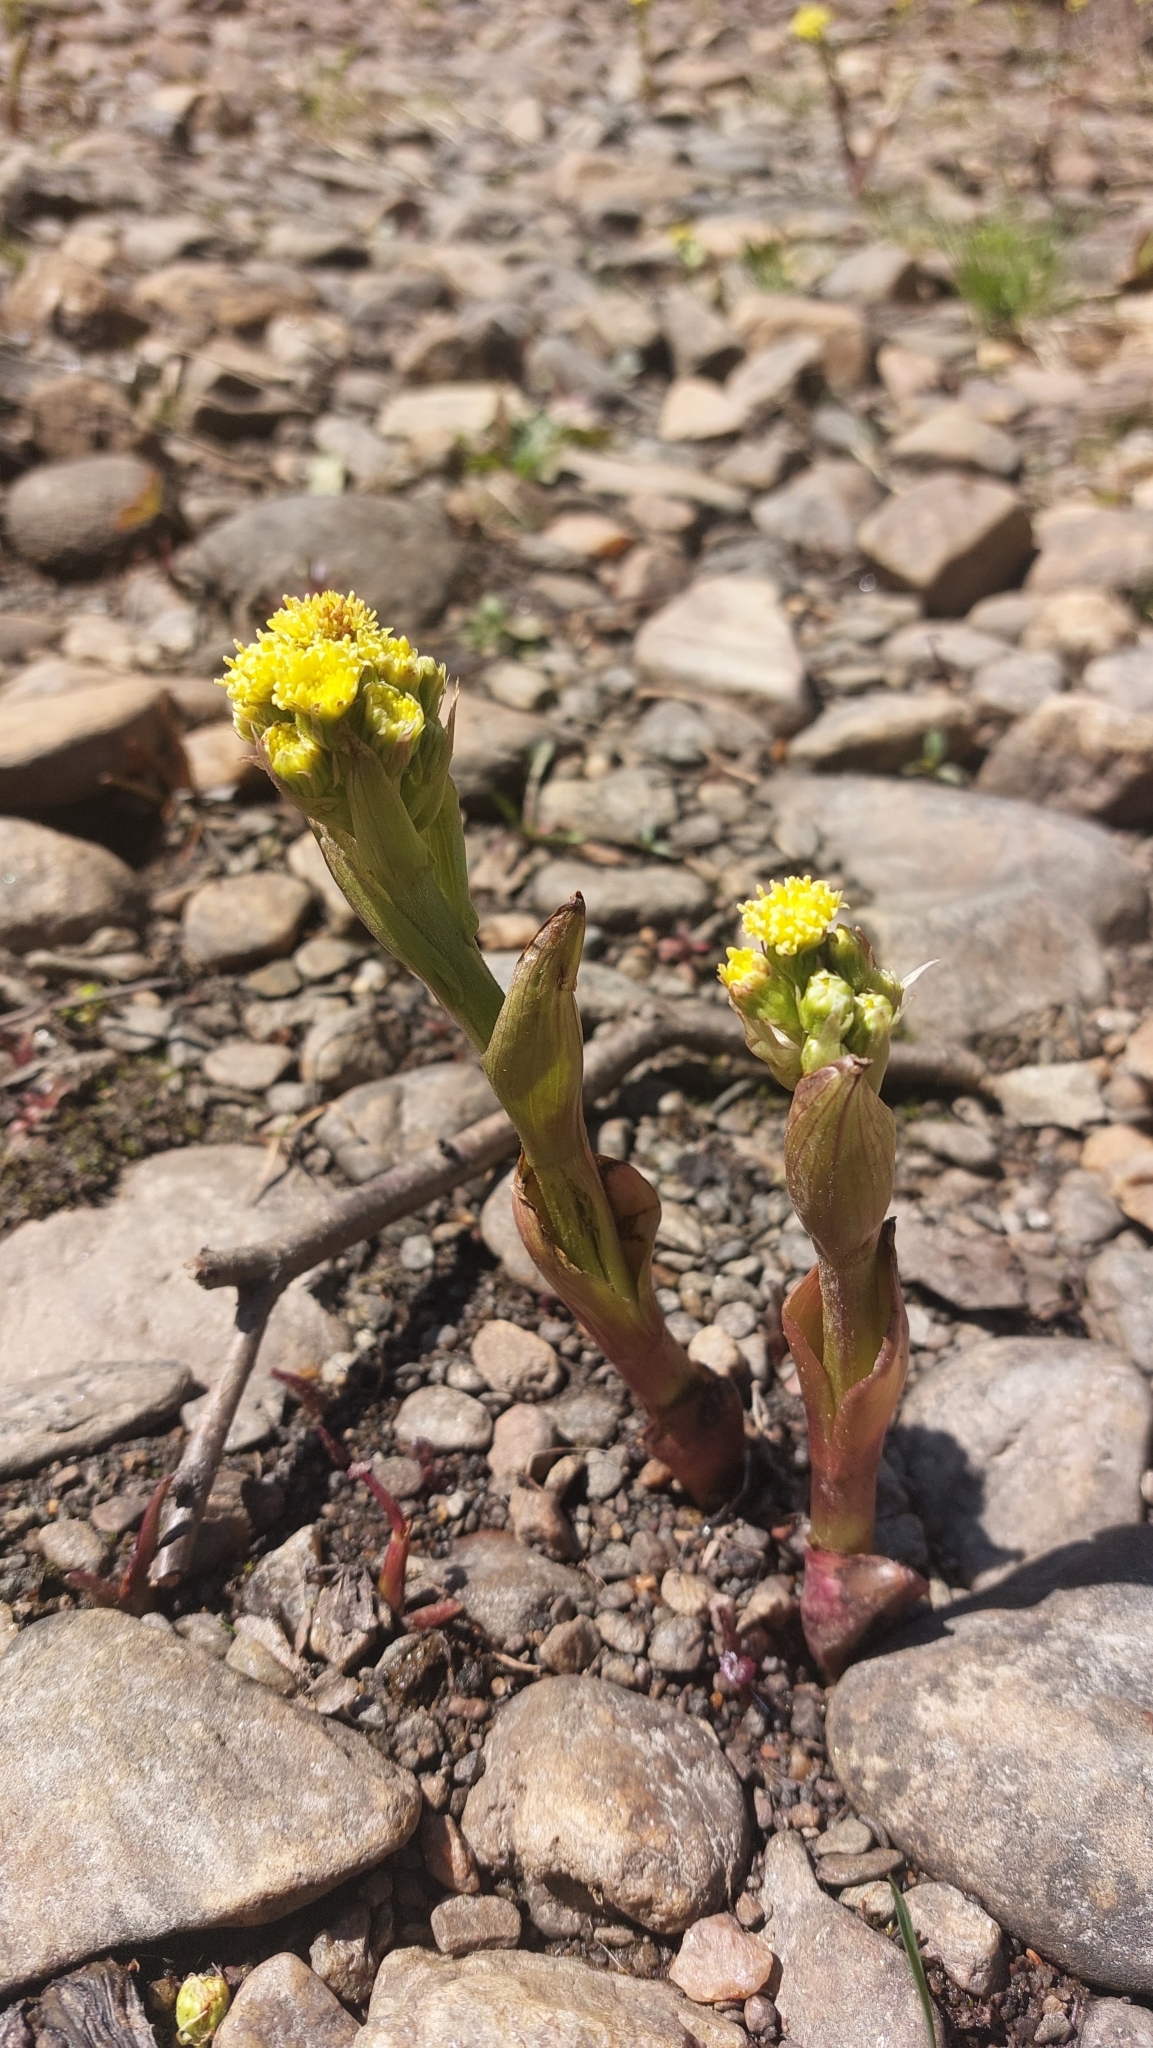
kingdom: Plantae
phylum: Tracheophyta
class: Magnoliopsida
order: Asterales
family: Asteraceae
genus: Petasites
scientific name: Petasites spurius
